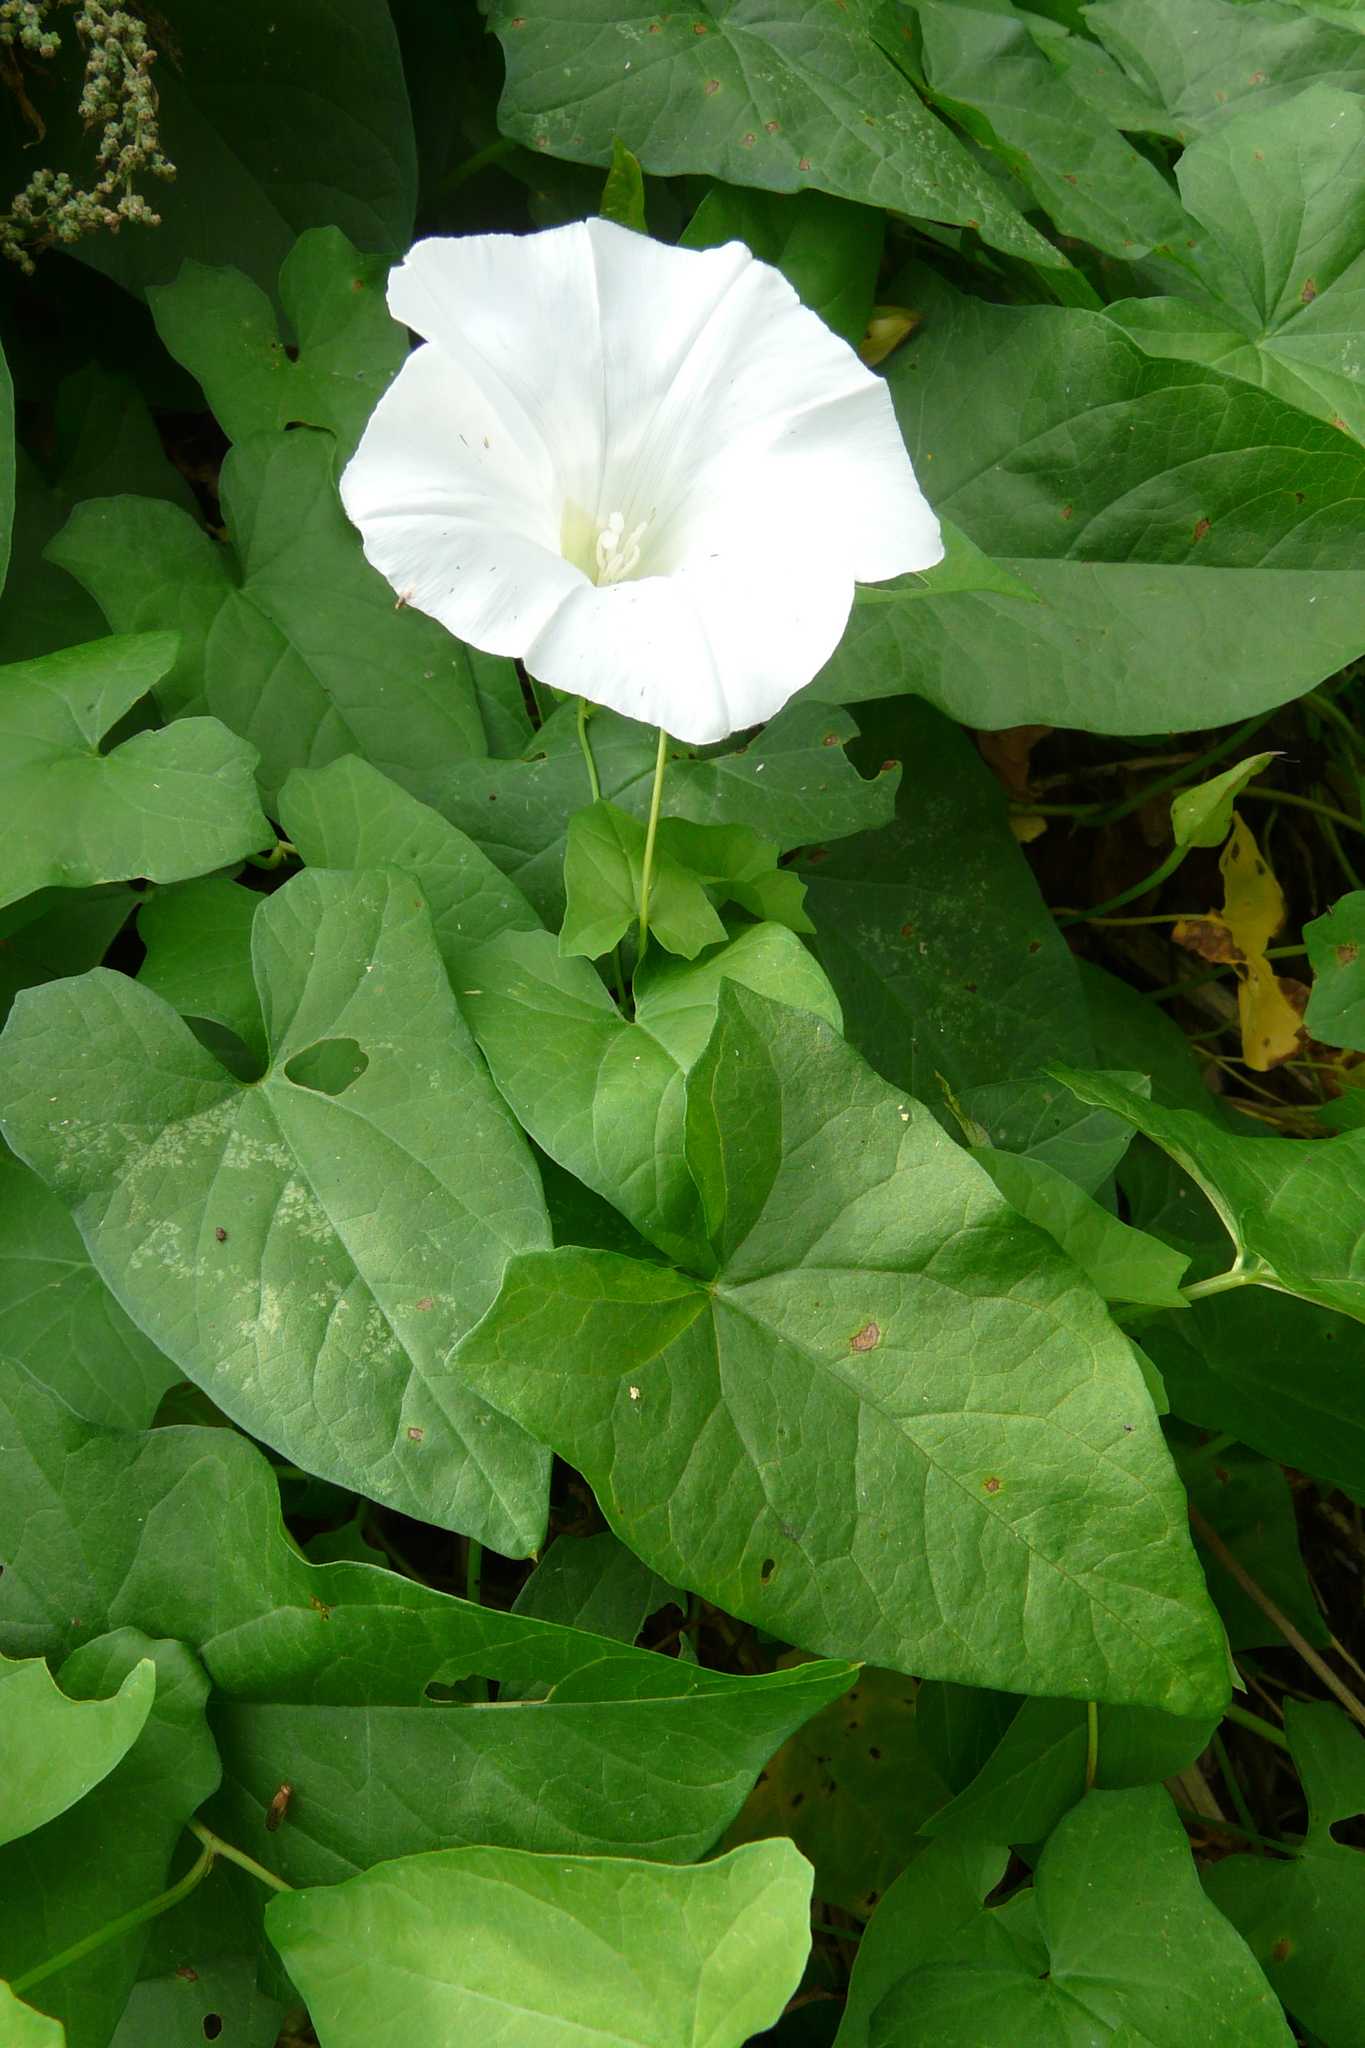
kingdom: Plantae
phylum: Tracheophyta
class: Magnoliopsida
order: Solanales
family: Convolvulaceae
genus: Calystegia
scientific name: Calystegia sepium
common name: Hedge bindweed
